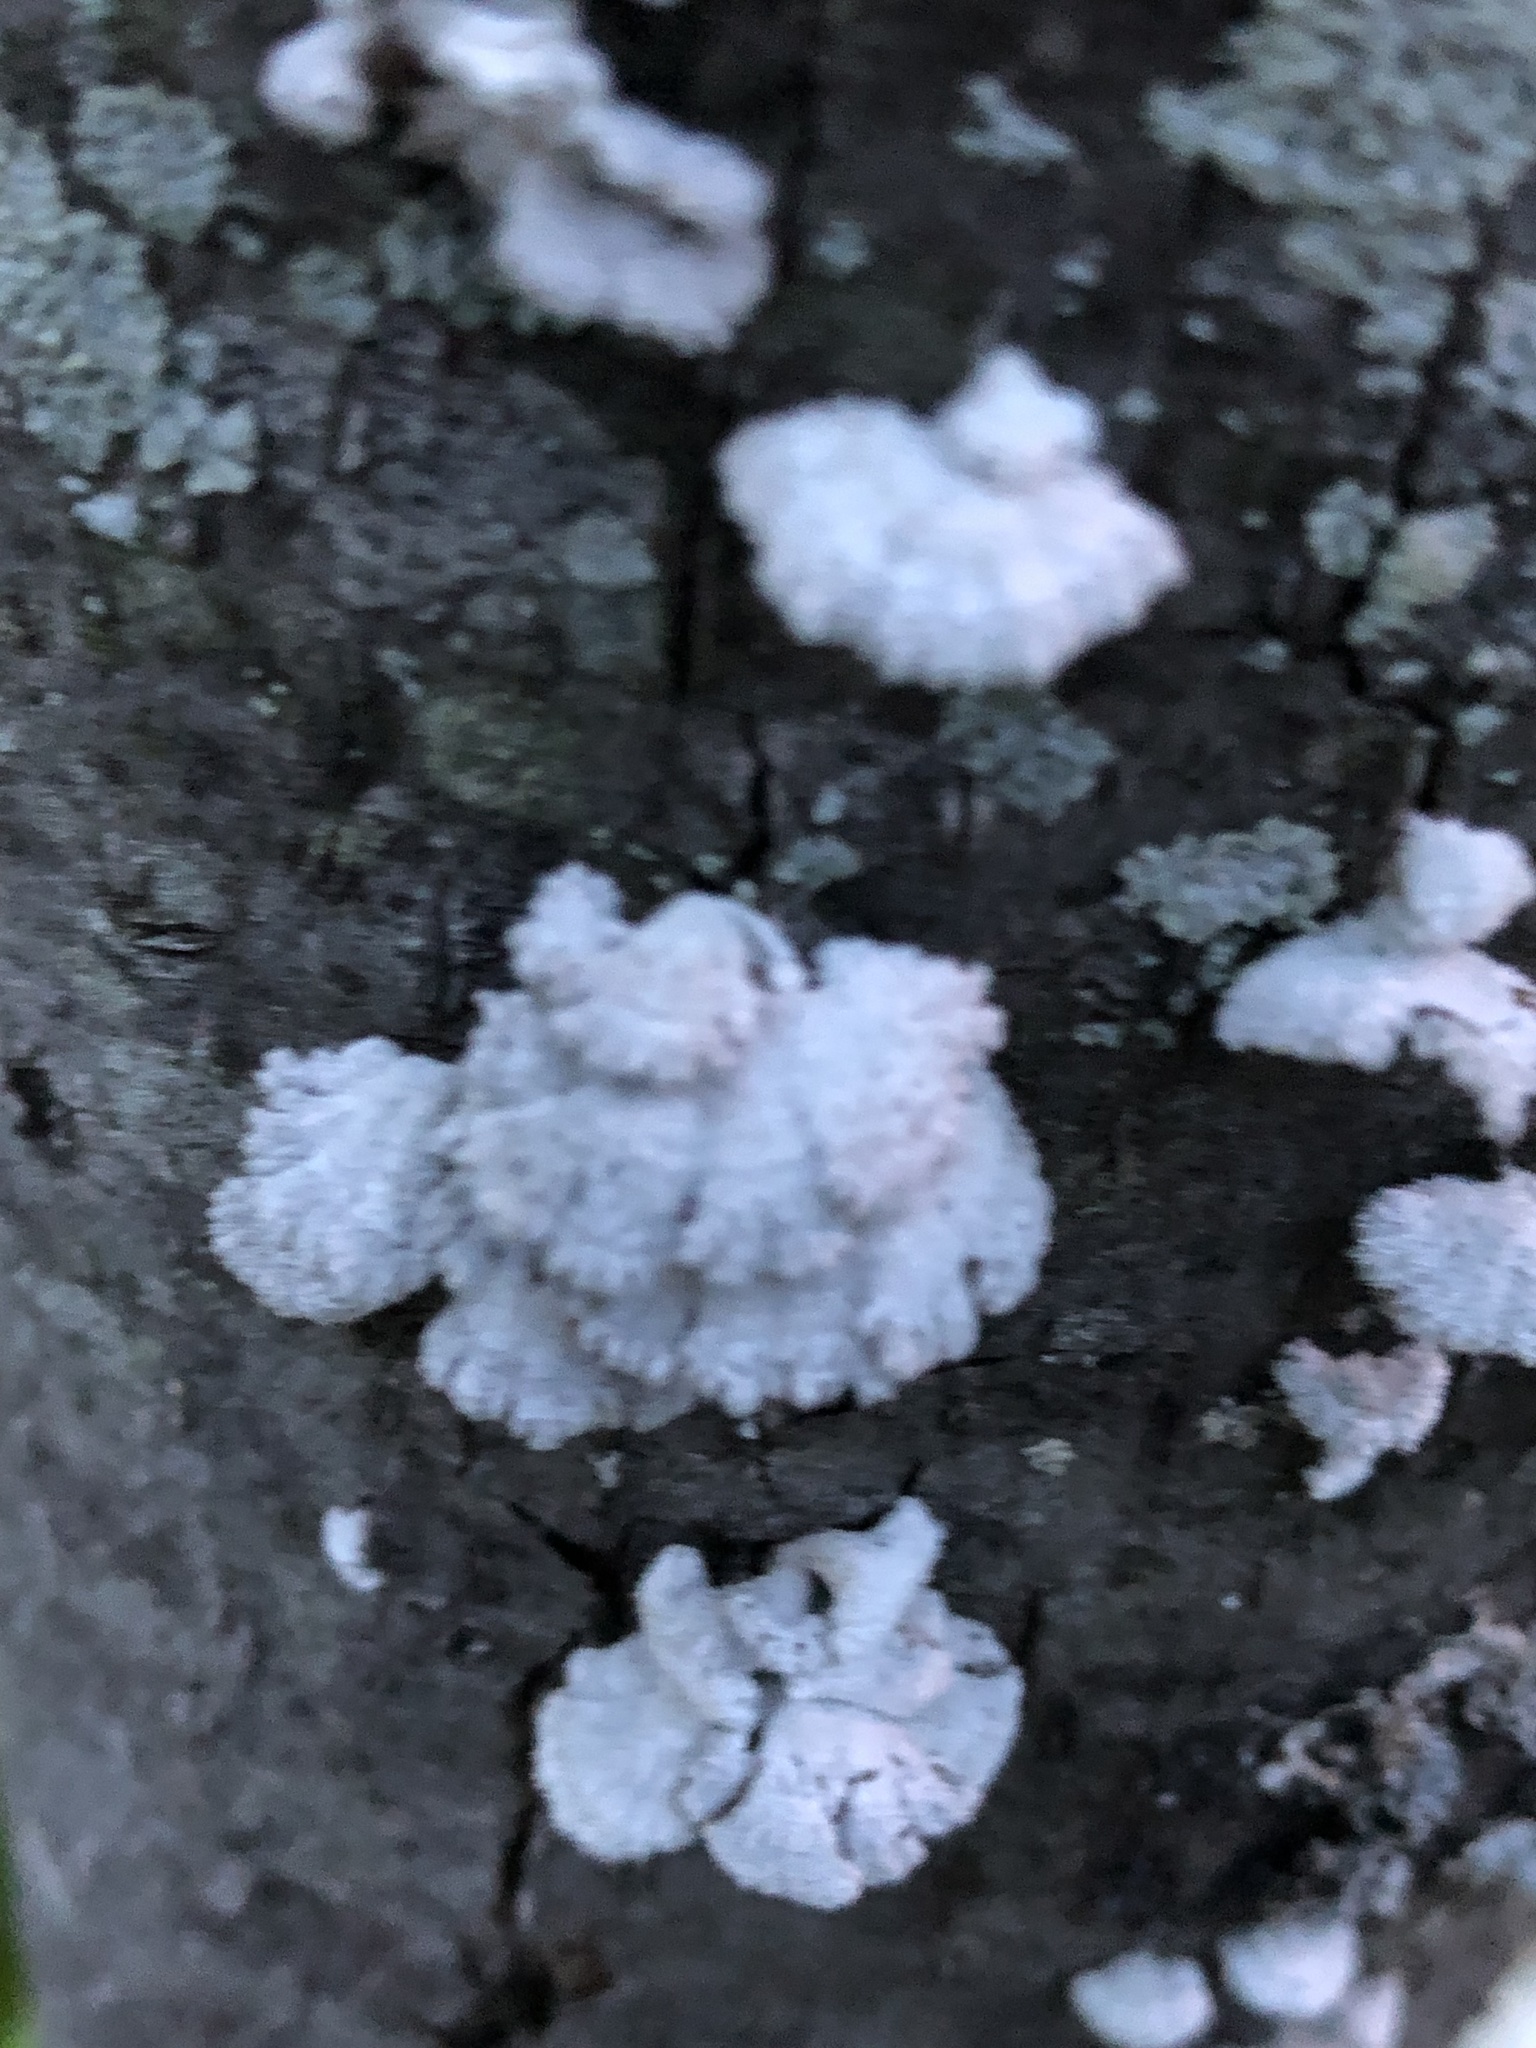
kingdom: Fungi
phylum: Basidiomycota
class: Agaricomycetes
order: Agaricales
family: Schizophyllaceae
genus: Schizophyllum
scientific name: Schizophyllum commune
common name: Common porecrust
